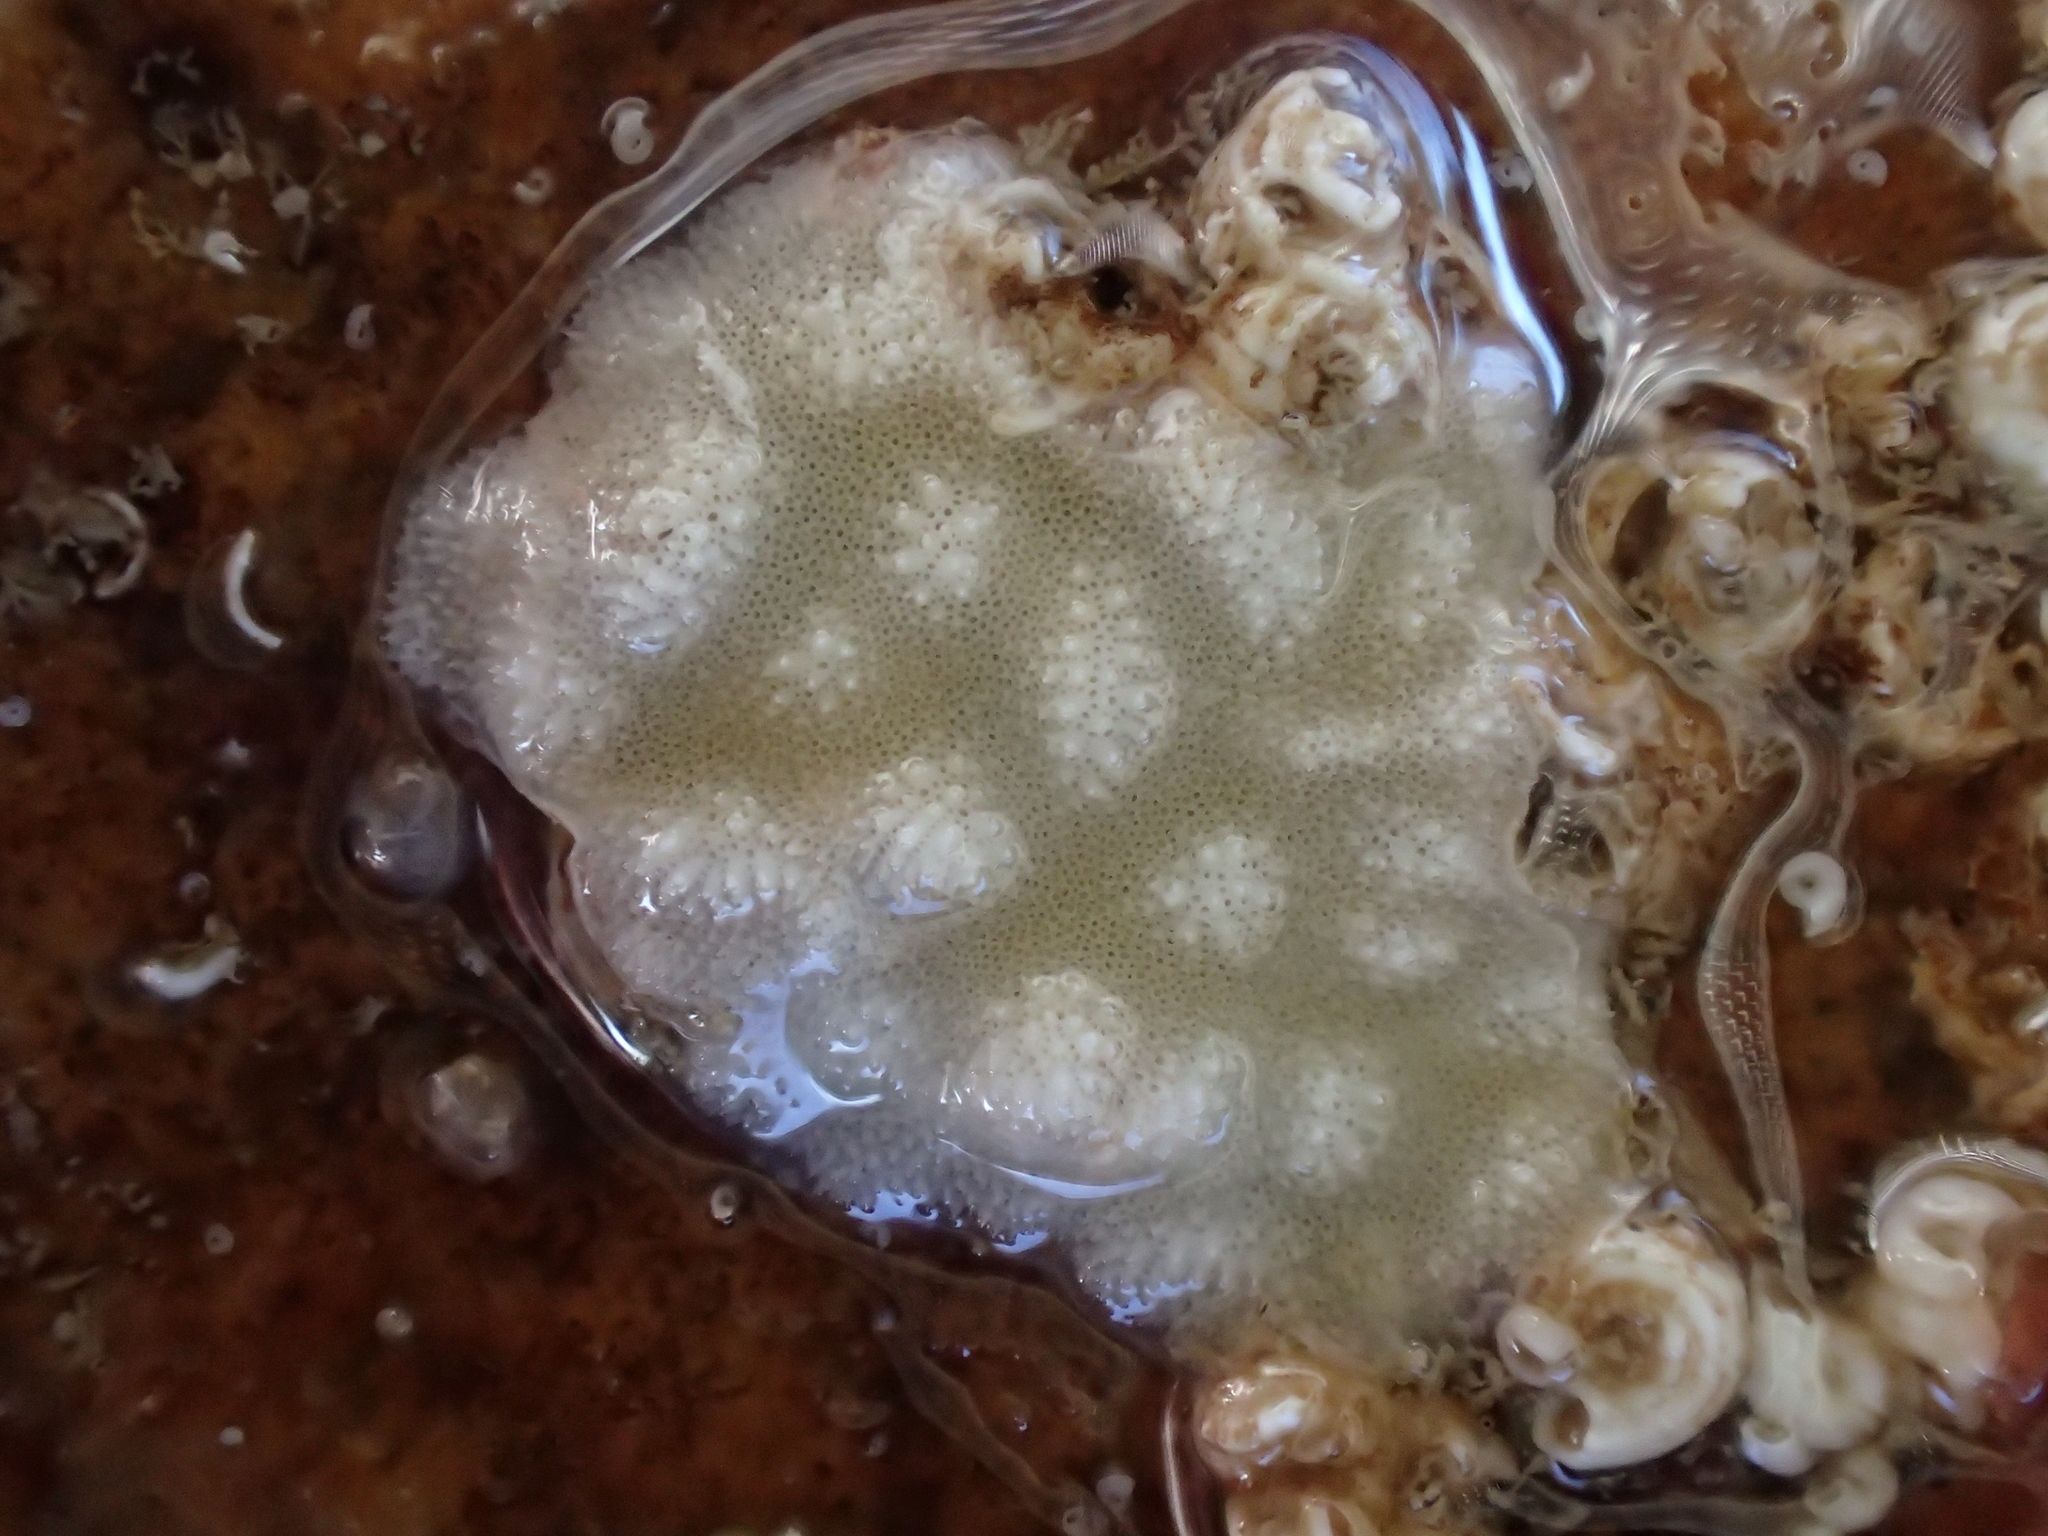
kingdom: Animalia
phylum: Bryozoa
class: Stenolaemata
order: Cyclostomatida
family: Lichenoporidae
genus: Disporella
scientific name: Disporella hispida
